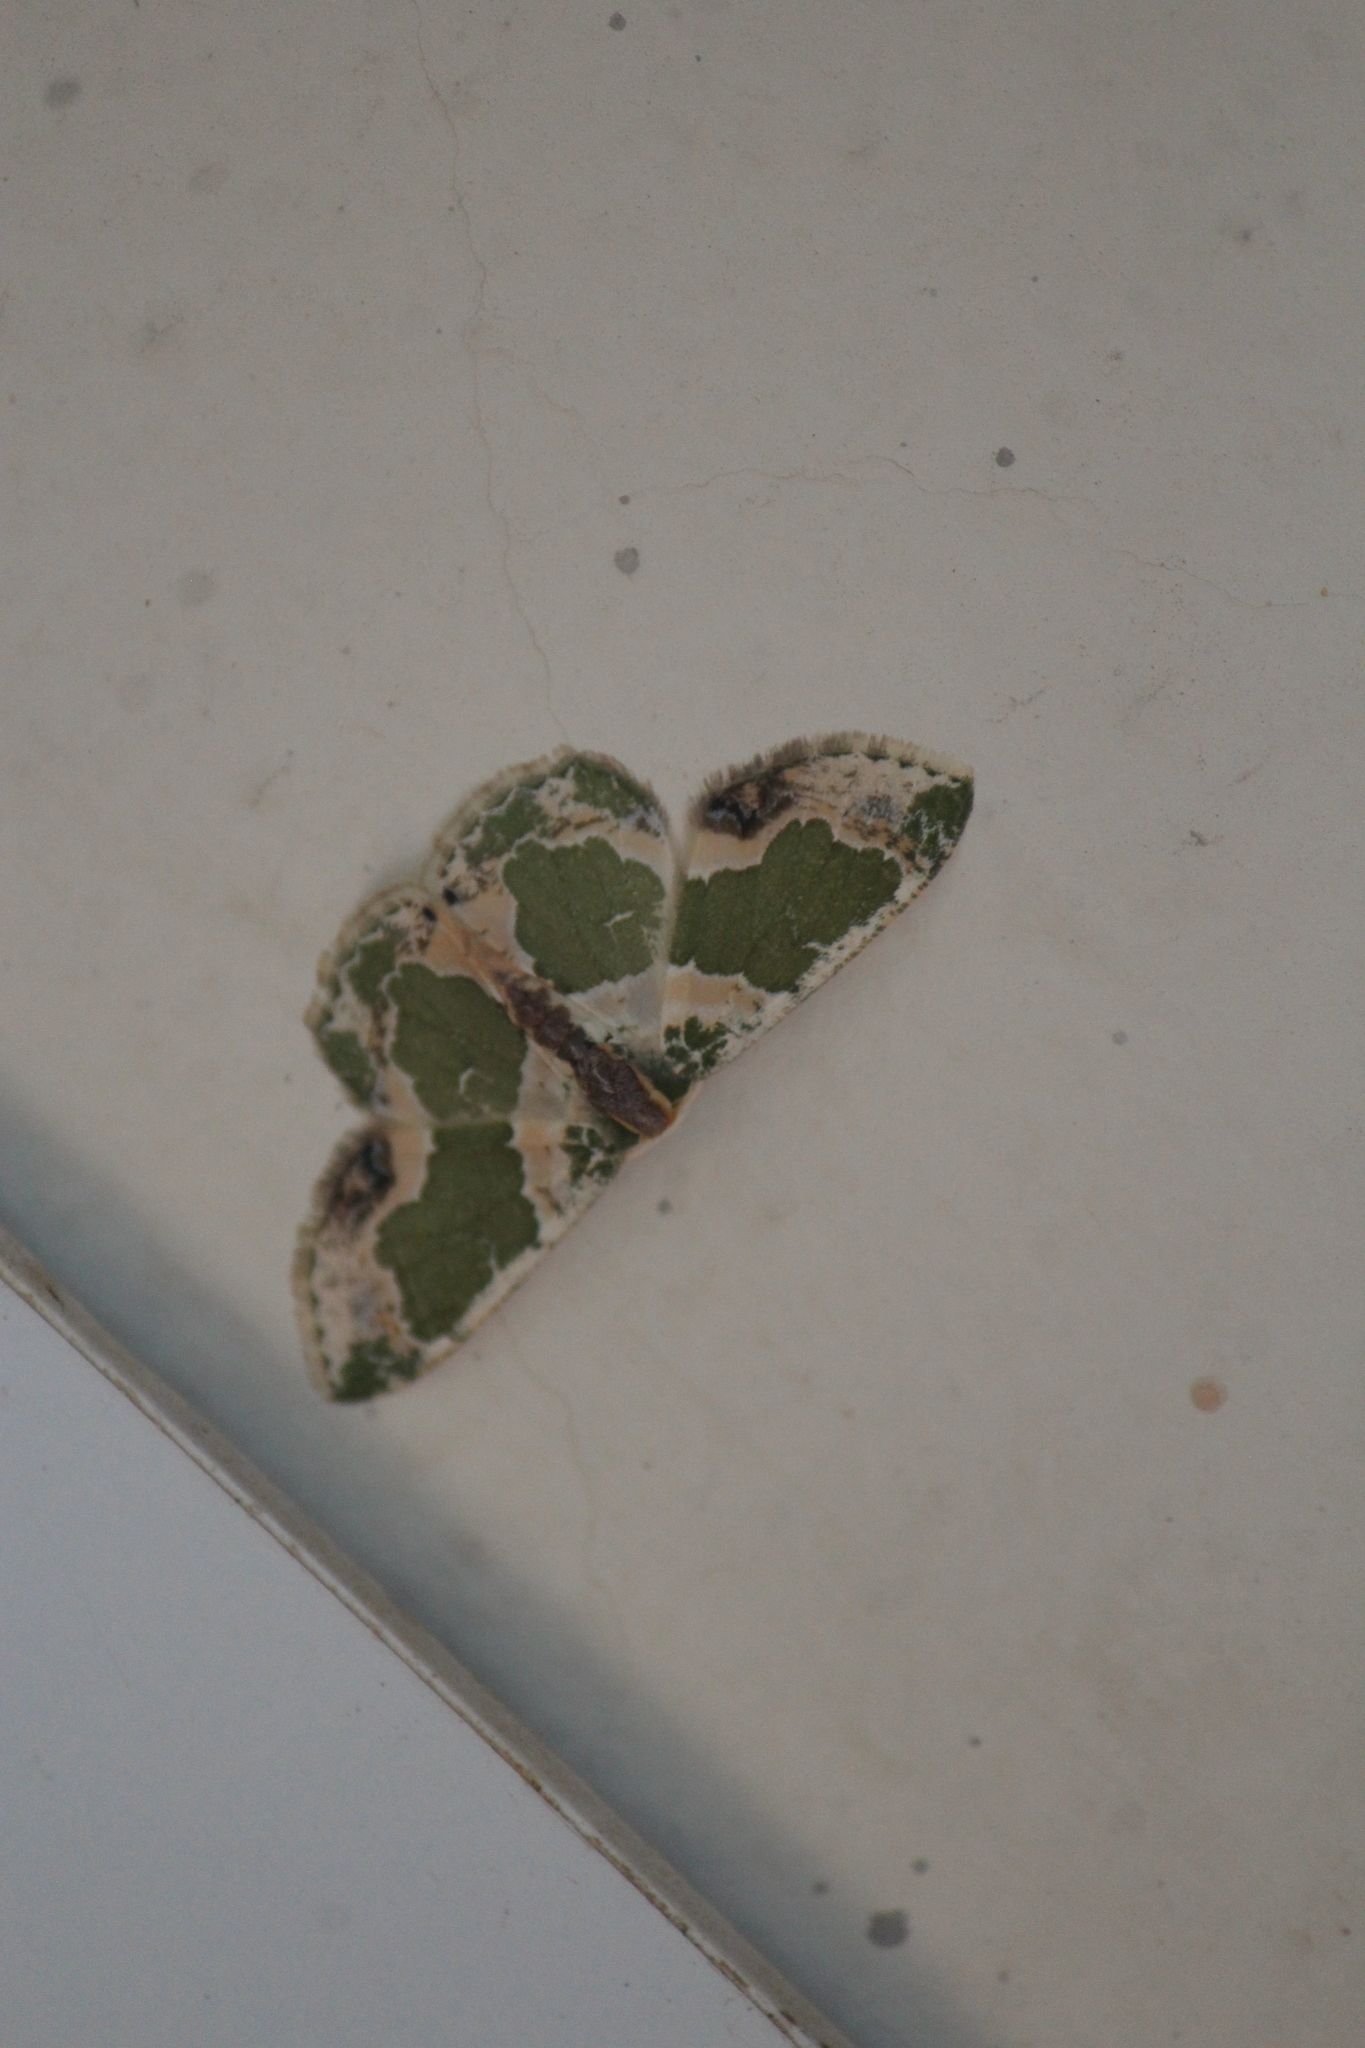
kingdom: Animalia
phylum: Arthropoda
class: Insecta
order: Lepidoptera
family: Geometridae
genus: Lophochorista
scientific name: Lophochorista calliope
